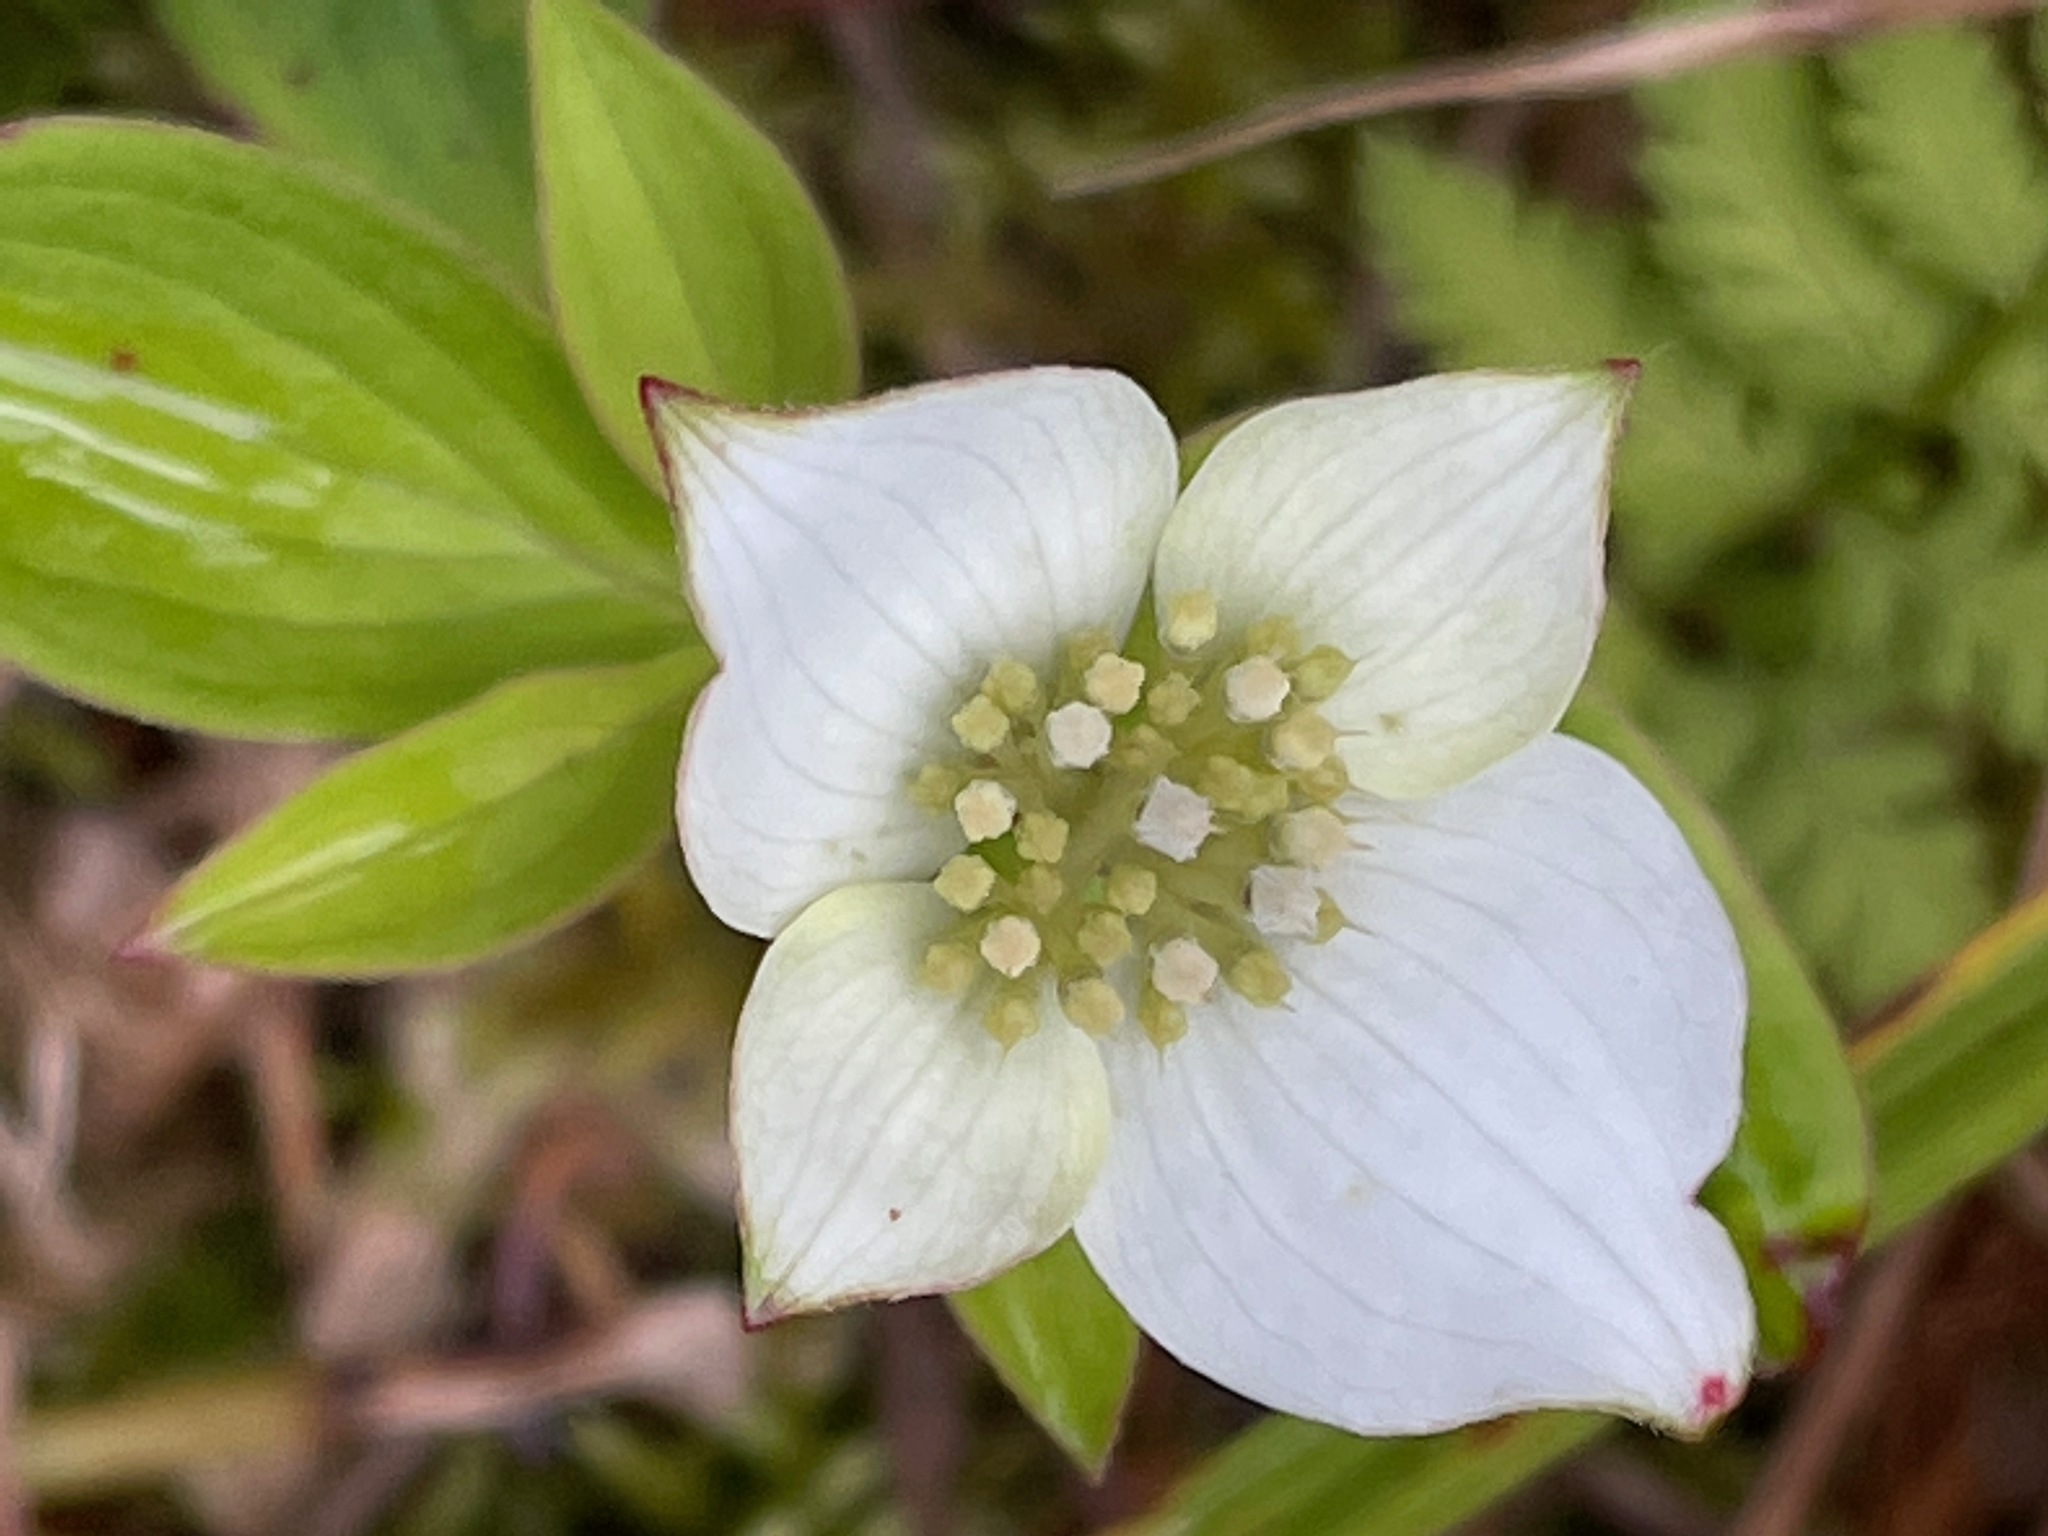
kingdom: Plantae
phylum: Tracheophyta
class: Magnoliopsida
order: Cornales
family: Cornaceae
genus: Cornus
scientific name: Cornus canadensis
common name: Creeping dogwood
